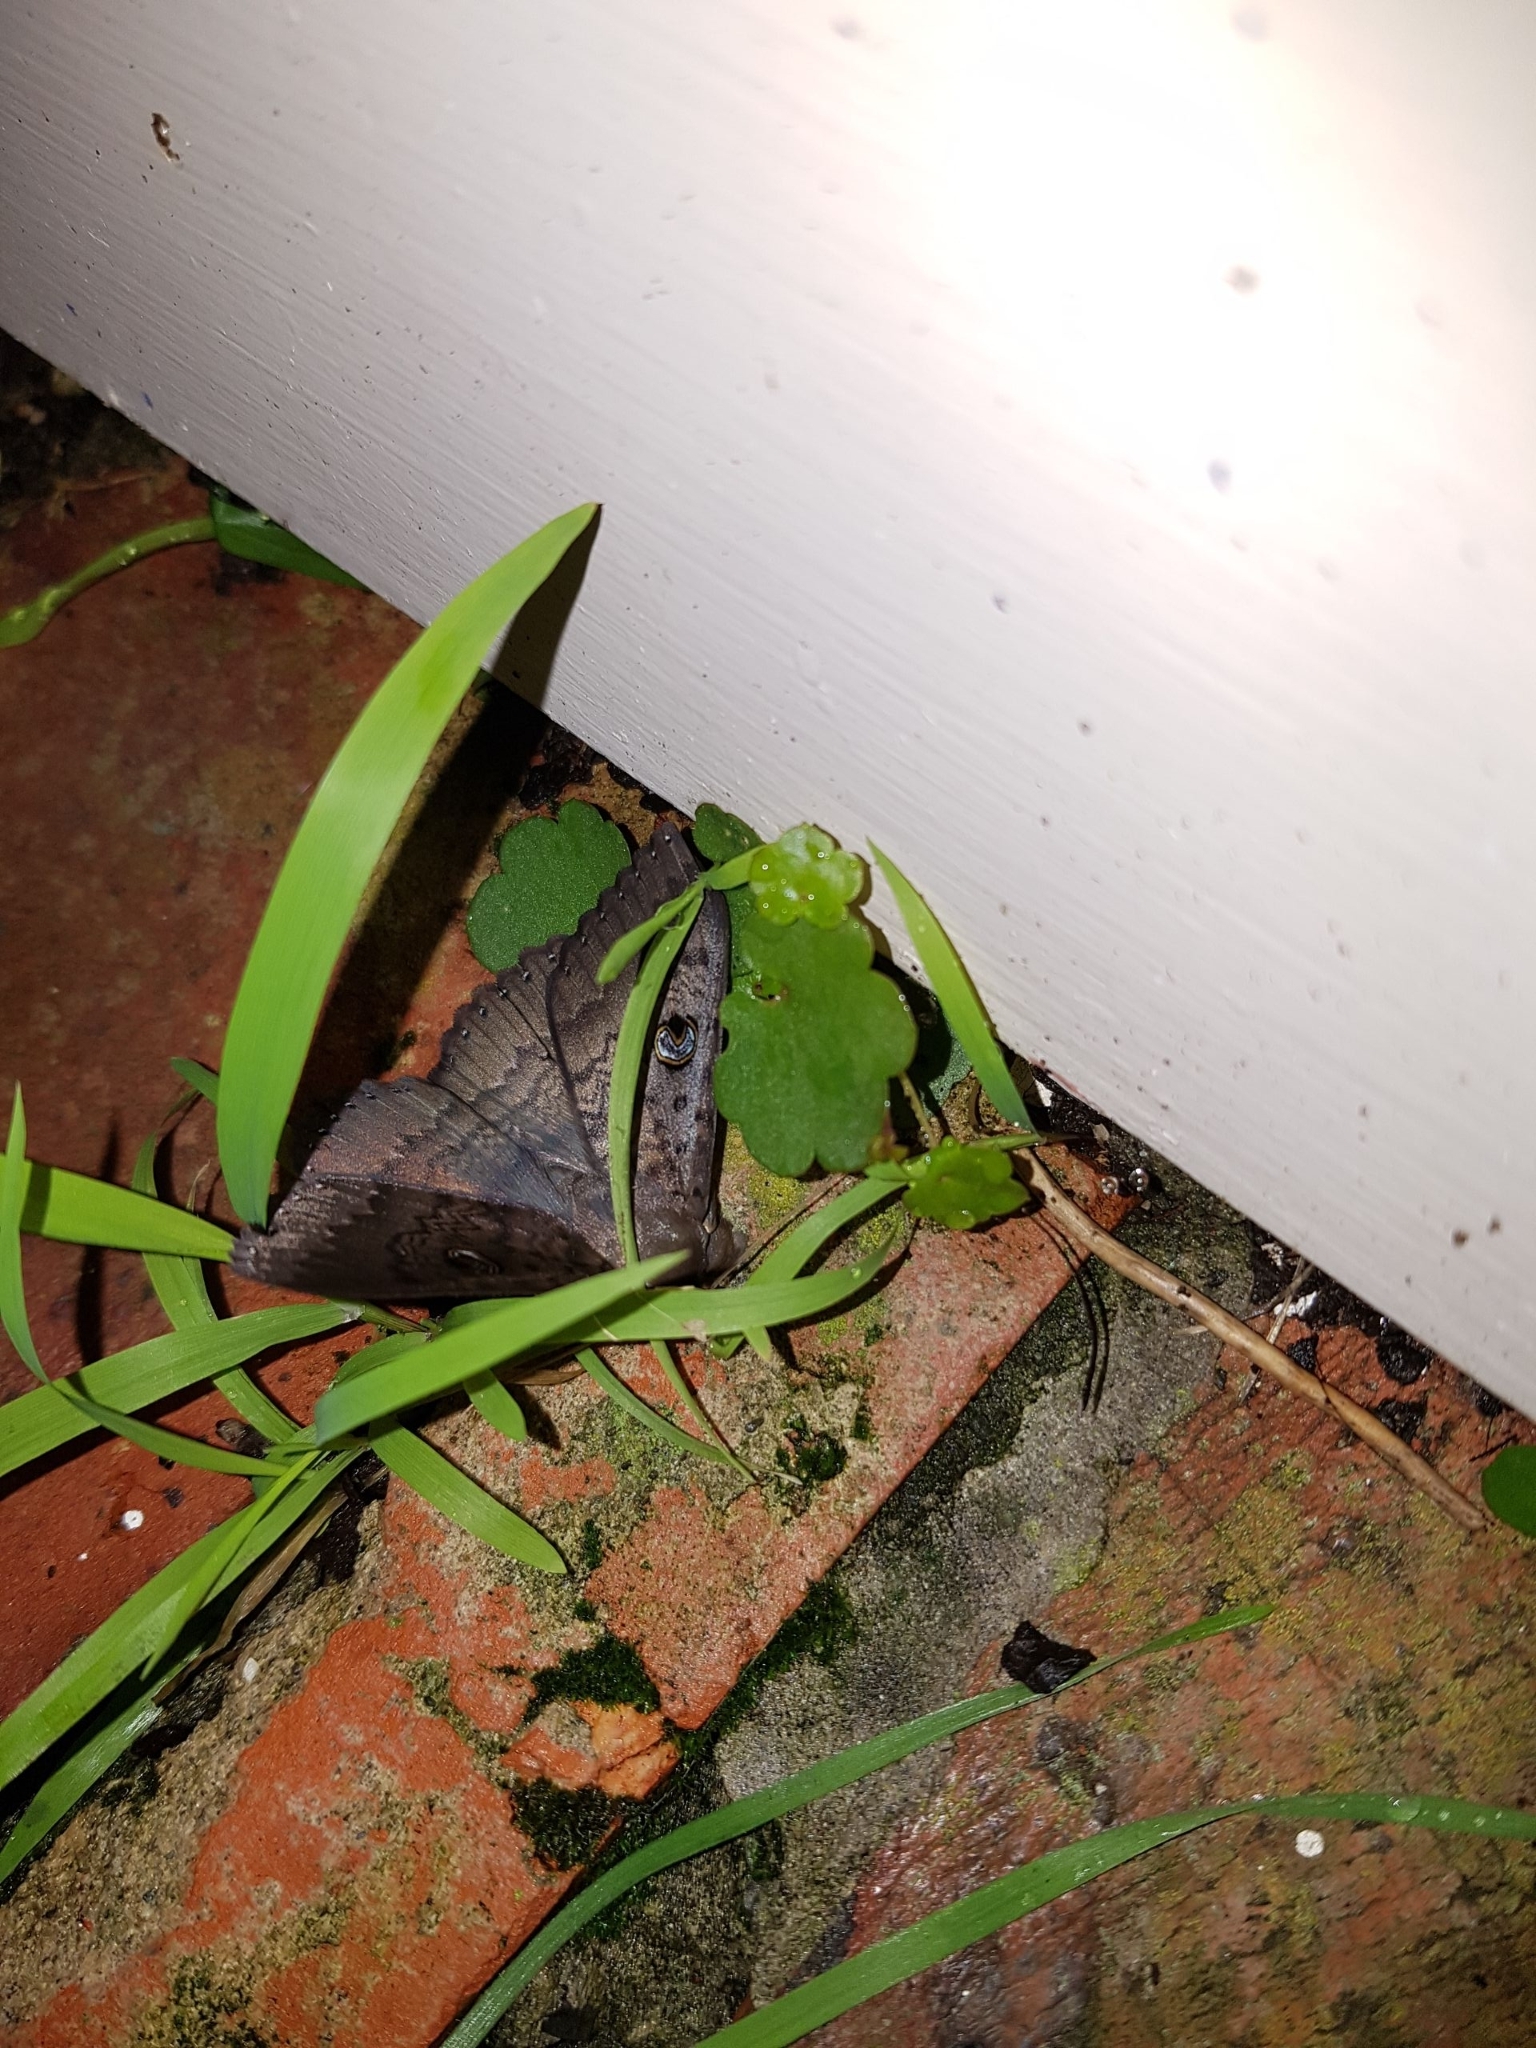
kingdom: Animalia
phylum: Arthropoda
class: Insecta
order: Lepidoptera
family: Erebidae
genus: Dasypodia
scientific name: Dasypodia cymatodes
